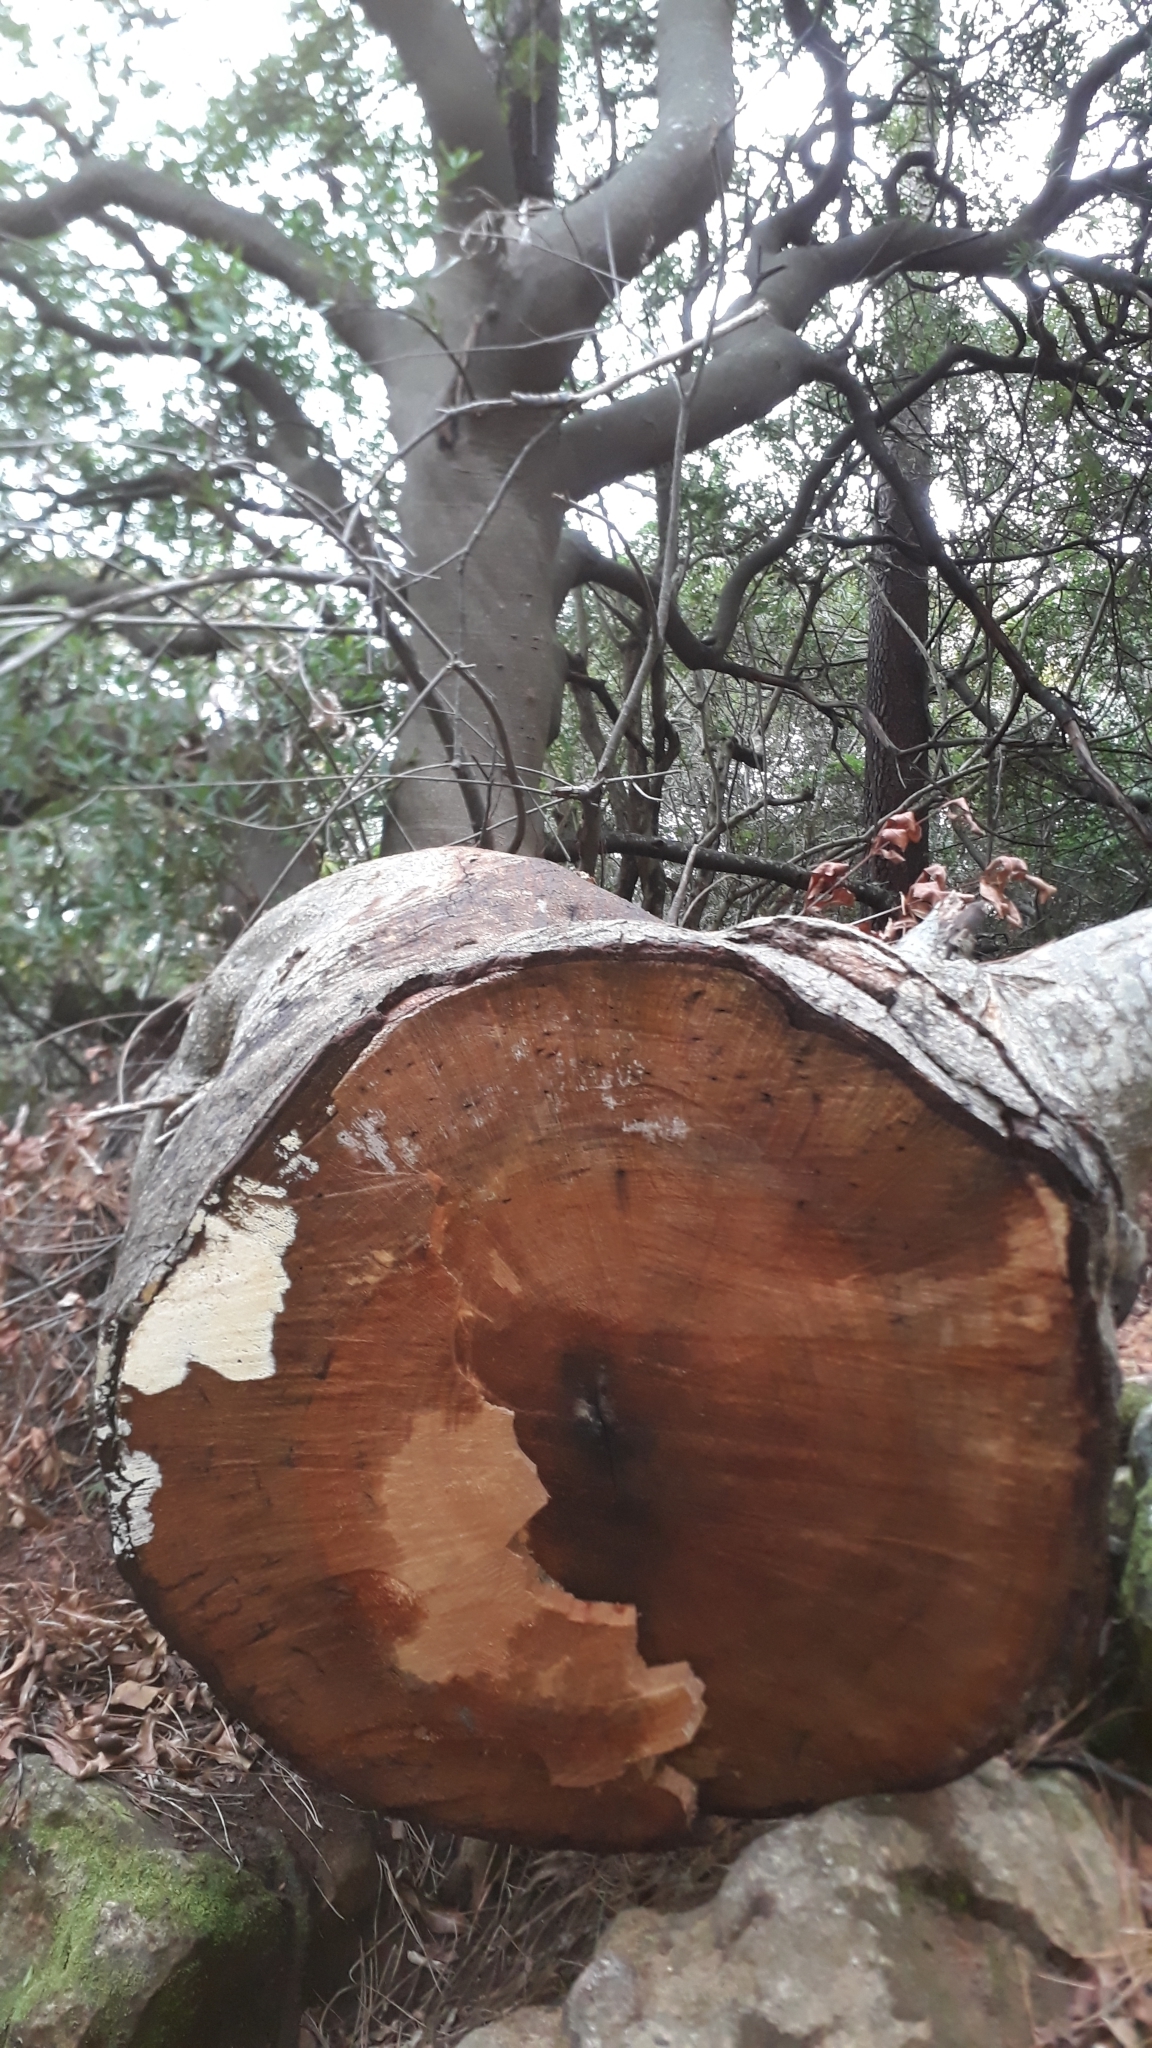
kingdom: Plantae
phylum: Tracheophyta
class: Magnoliopsida
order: Proteales
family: Proteaceae
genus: Brabejum
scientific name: Brabejum stellatifolium
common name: Wild almond
